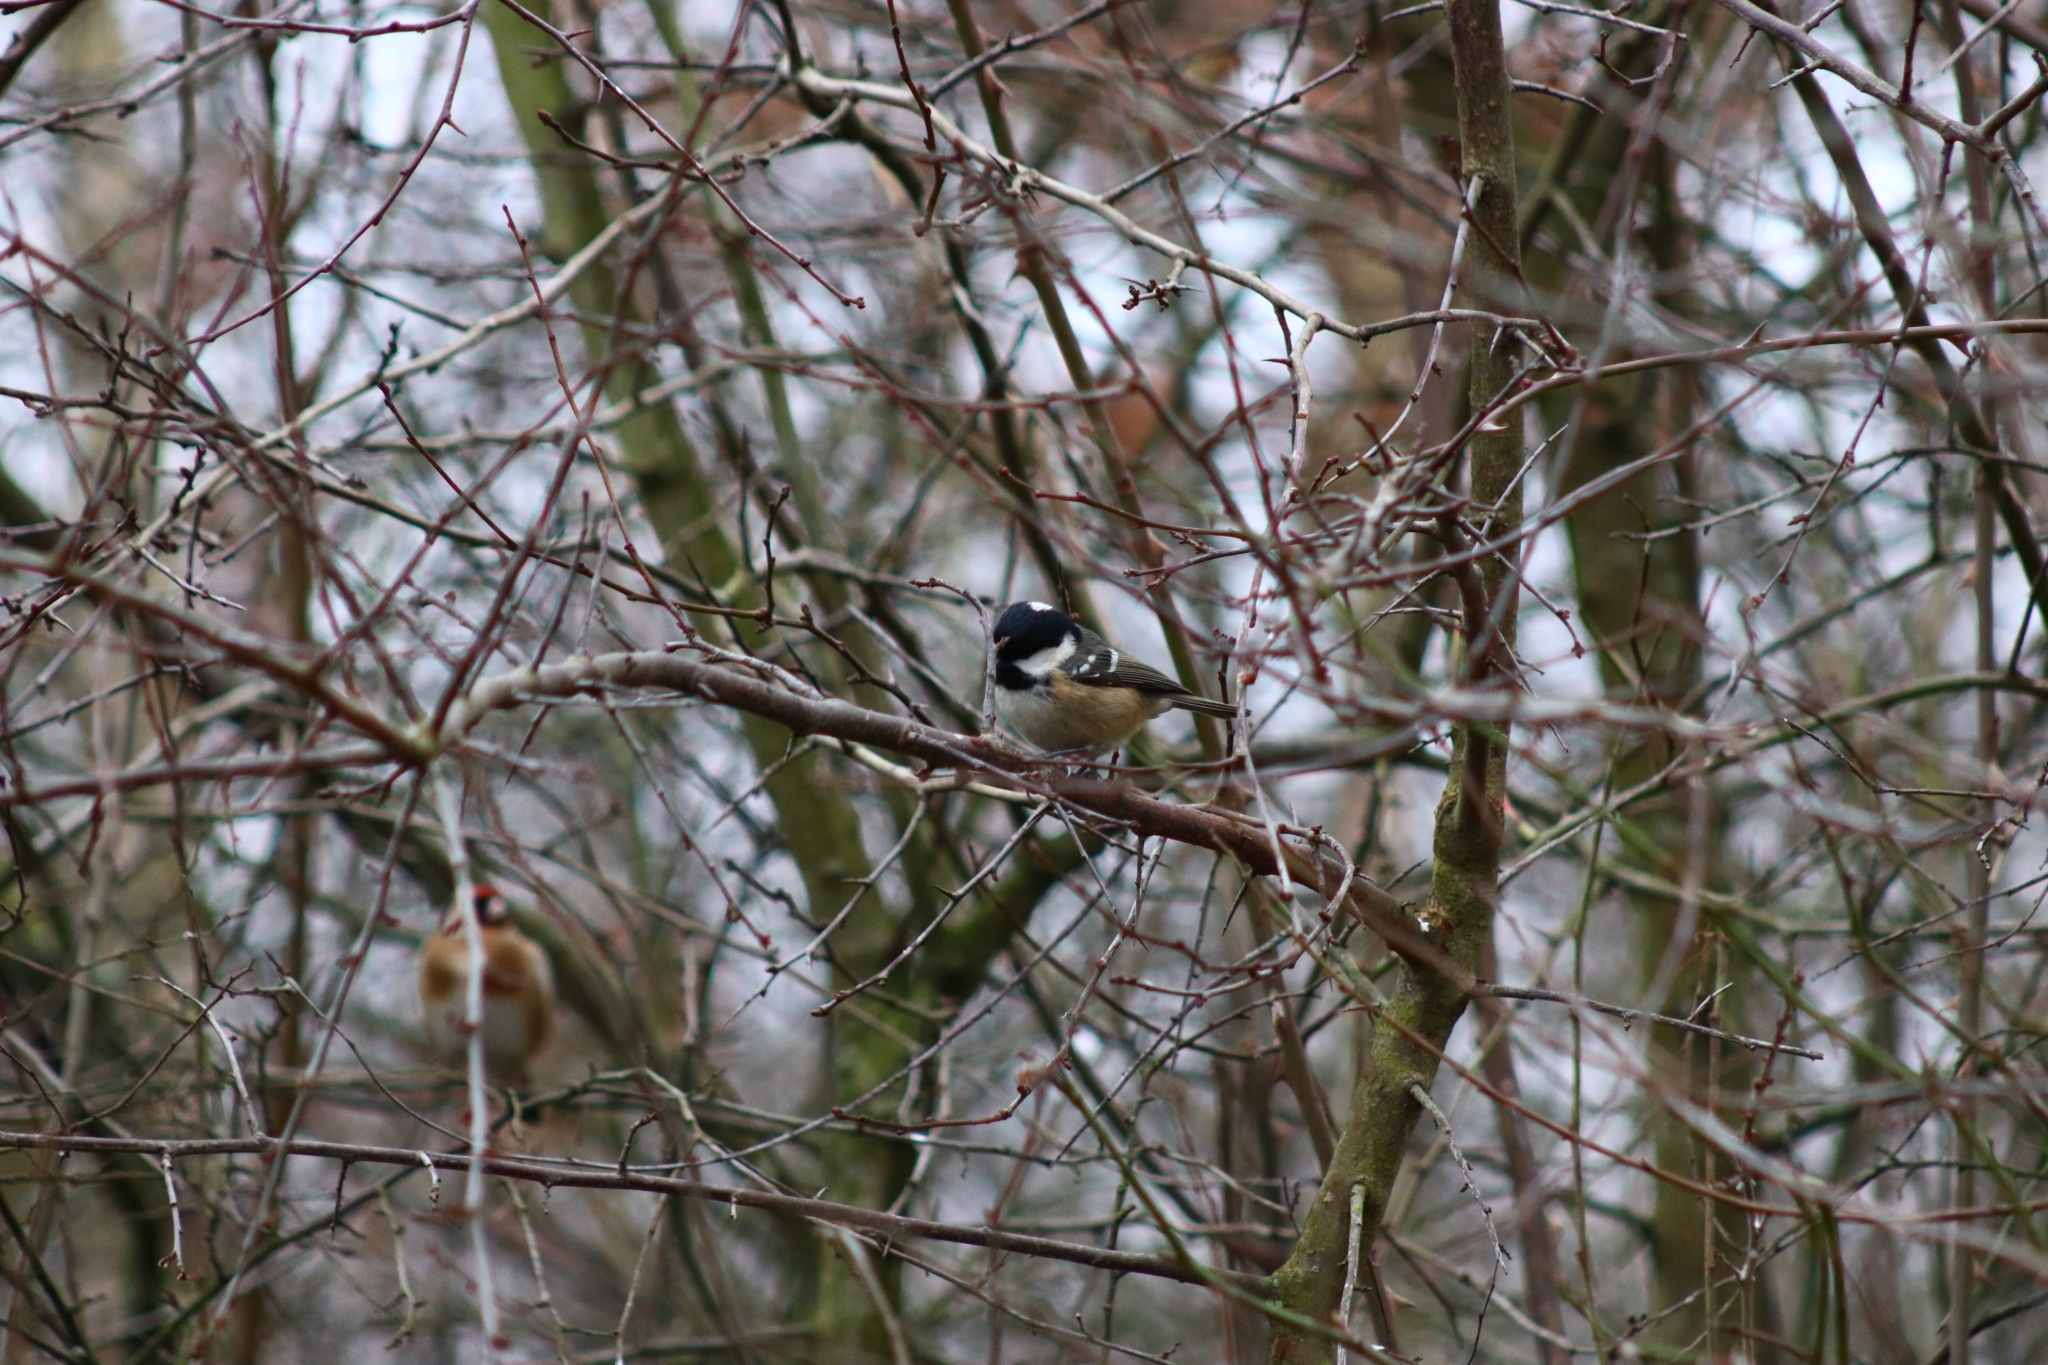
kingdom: Animalia
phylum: Chordata
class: Aves
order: Passeriformes
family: Paridae
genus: Periparus
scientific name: Periparus ater
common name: Coal tit
